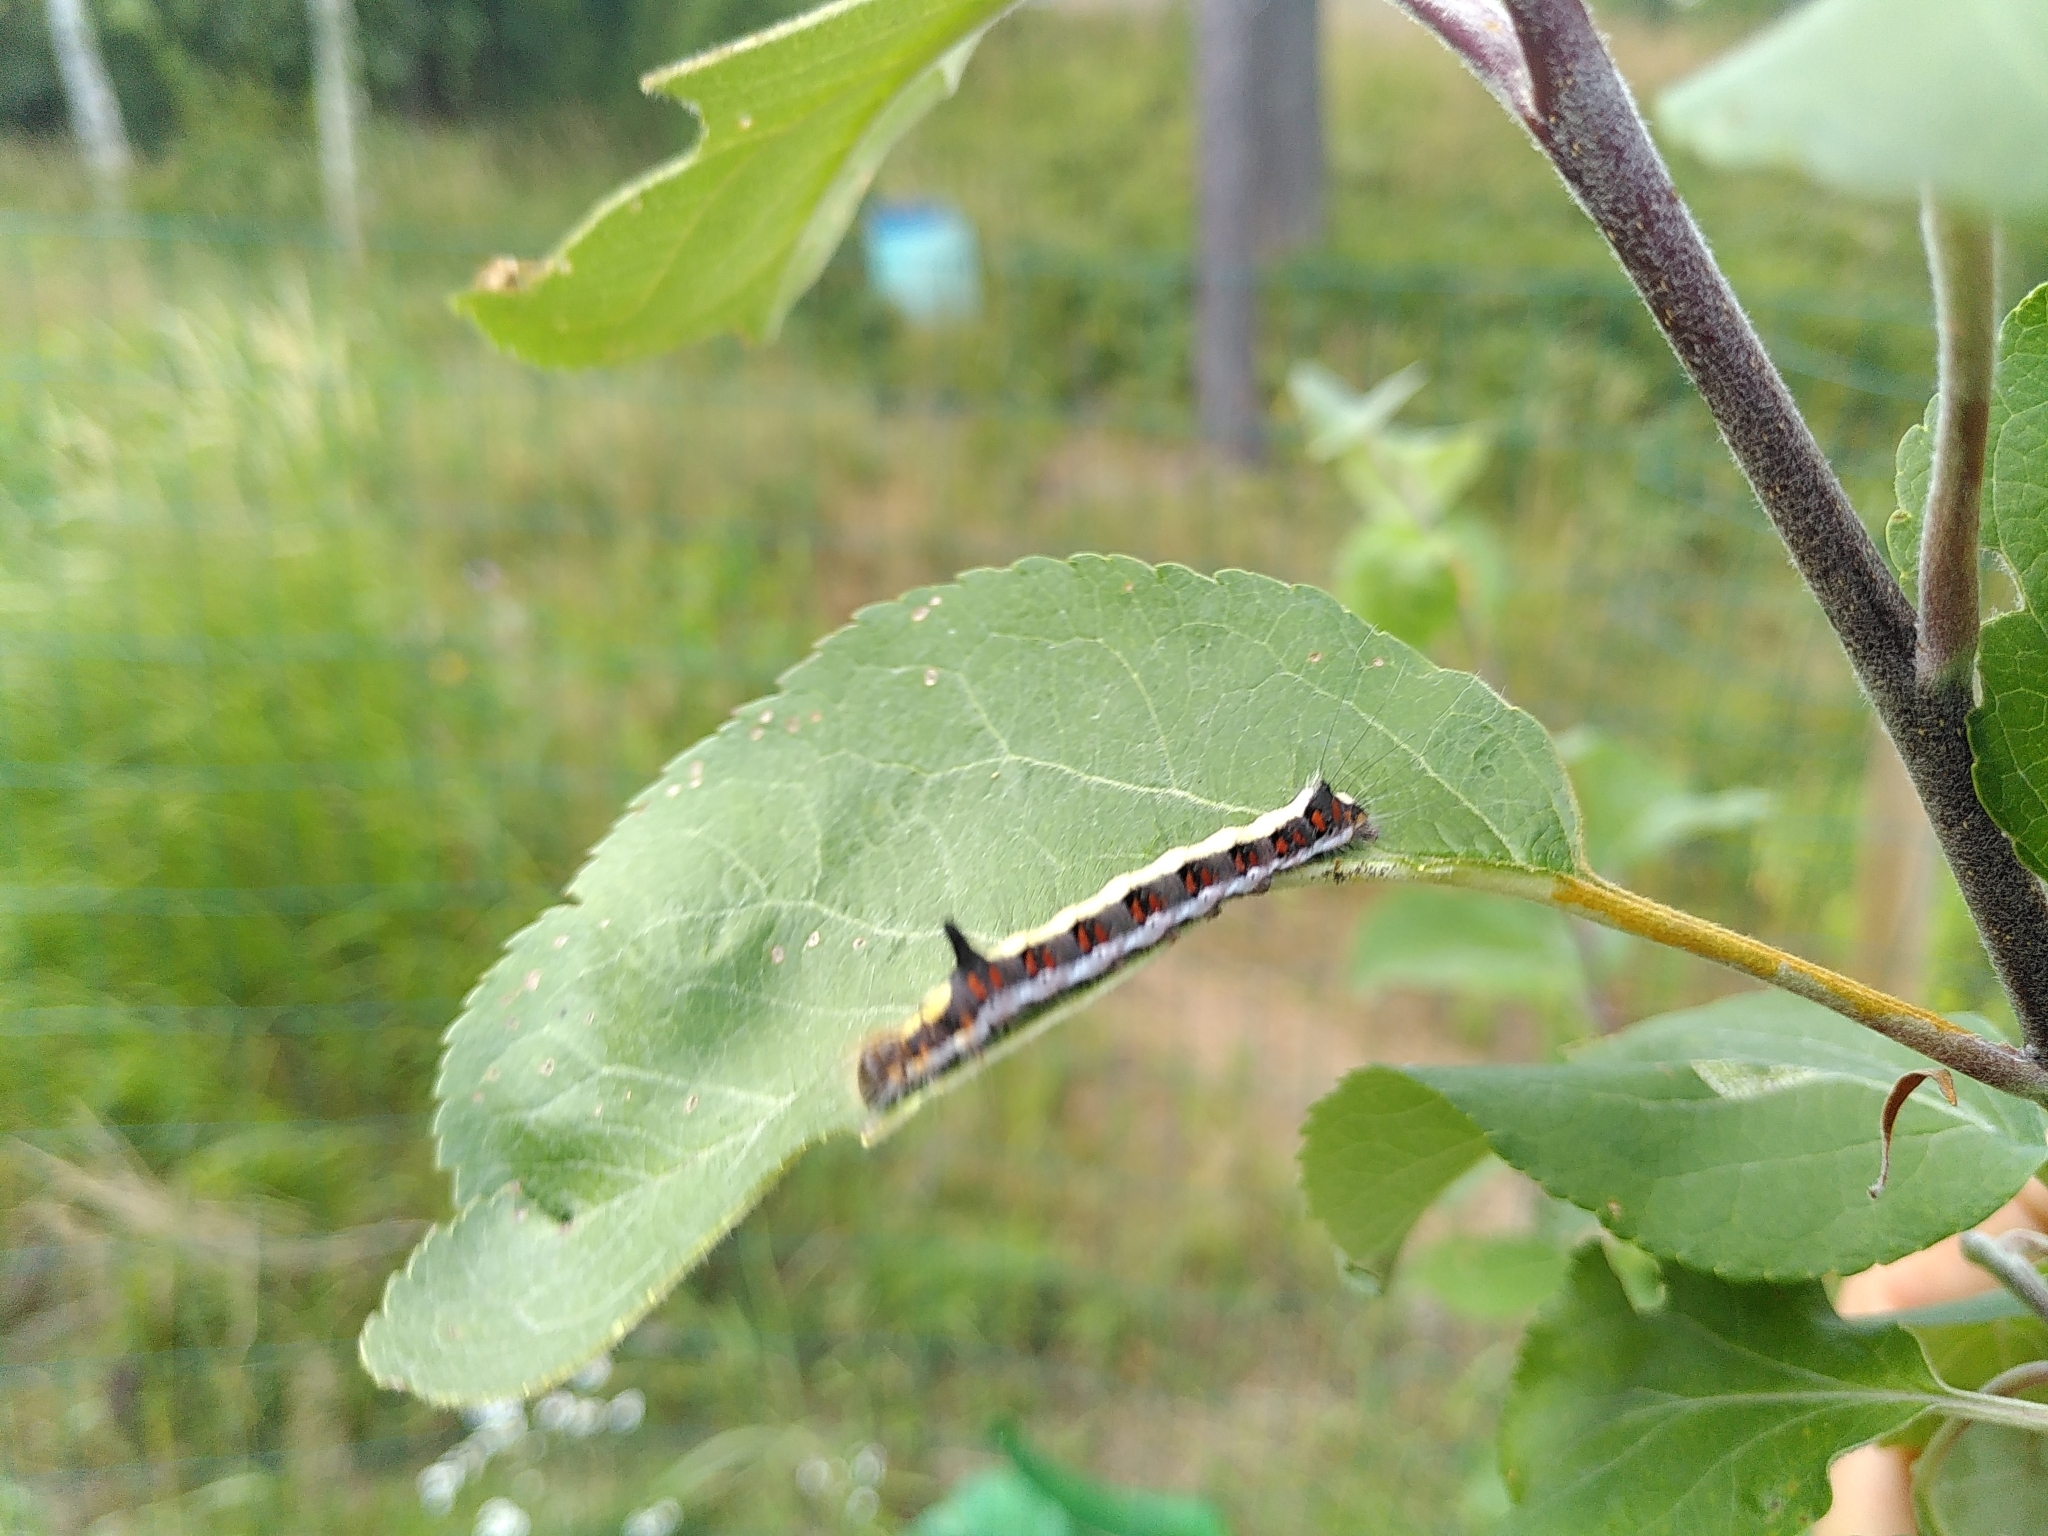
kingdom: Animalia
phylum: Arthropoda
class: Insecta
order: Lepidoptera
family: Noctuidae
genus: Acronicta
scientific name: Acronicta psi
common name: Grey dagger
